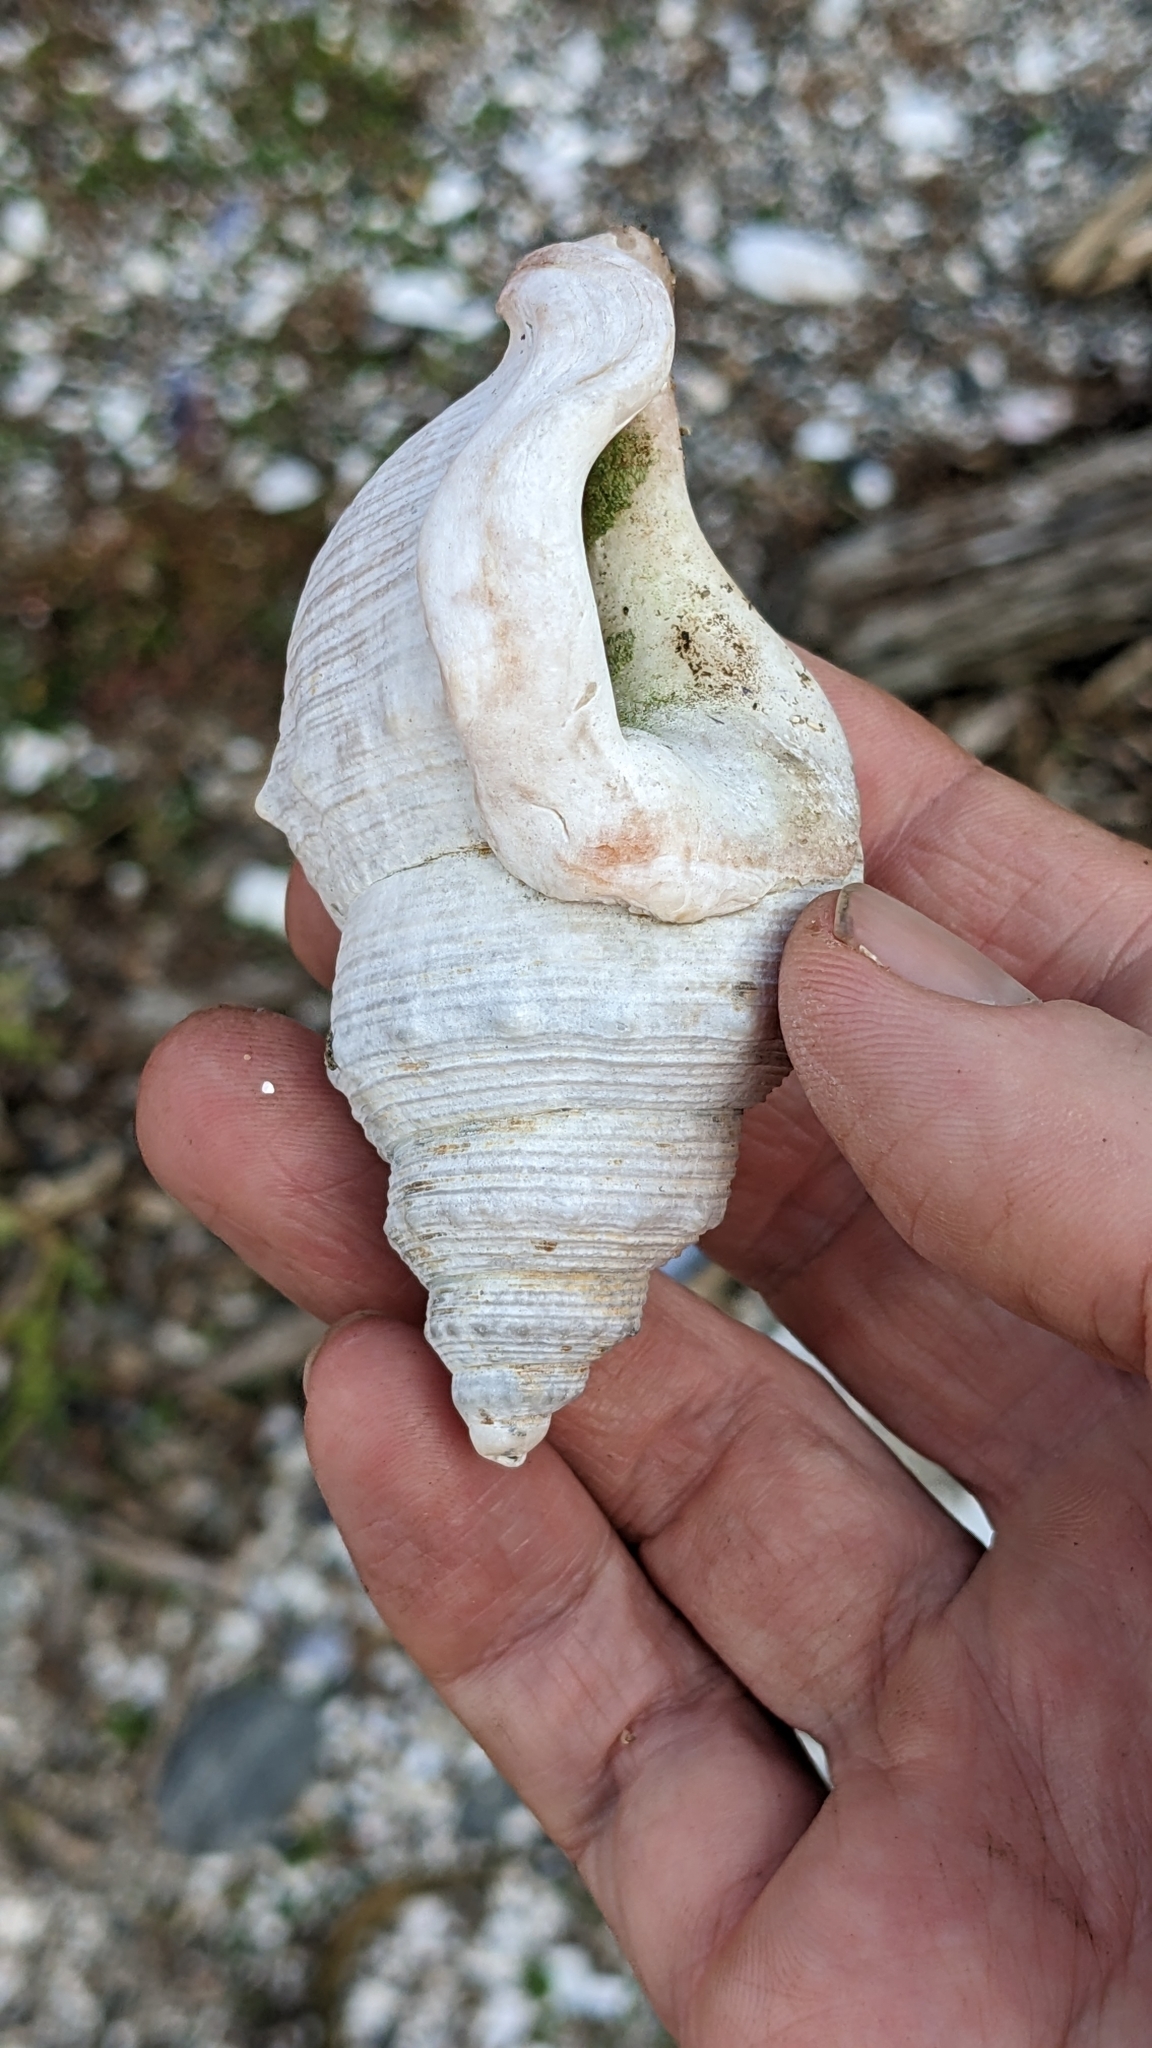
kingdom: Animalia
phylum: Mollusca
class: Gastropoda
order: Littorinimorpha
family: Struthiolariidae
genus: Struthiolaria
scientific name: Struthiolaria papulosa
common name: Large ostrich foot
